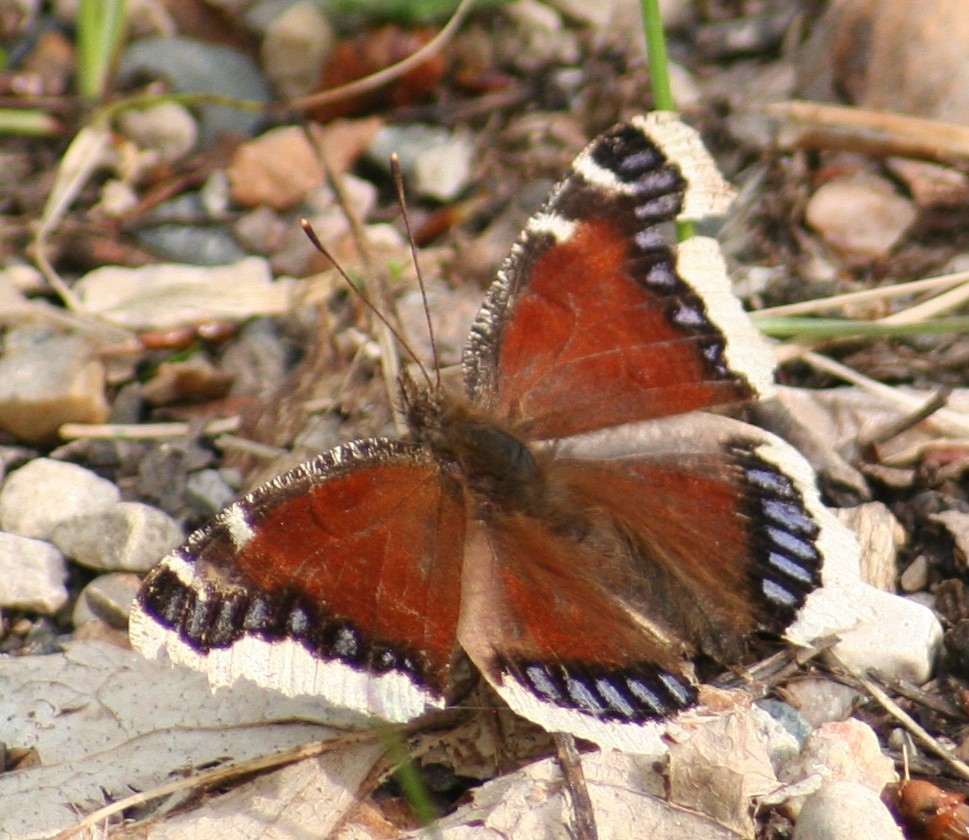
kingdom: Animalia
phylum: Arthropoda
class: Insecta
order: Lepidoptera
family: Nymphalidae
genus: Nymphalis
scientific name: Nymphalis antiopa
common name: Camberwell beauty
